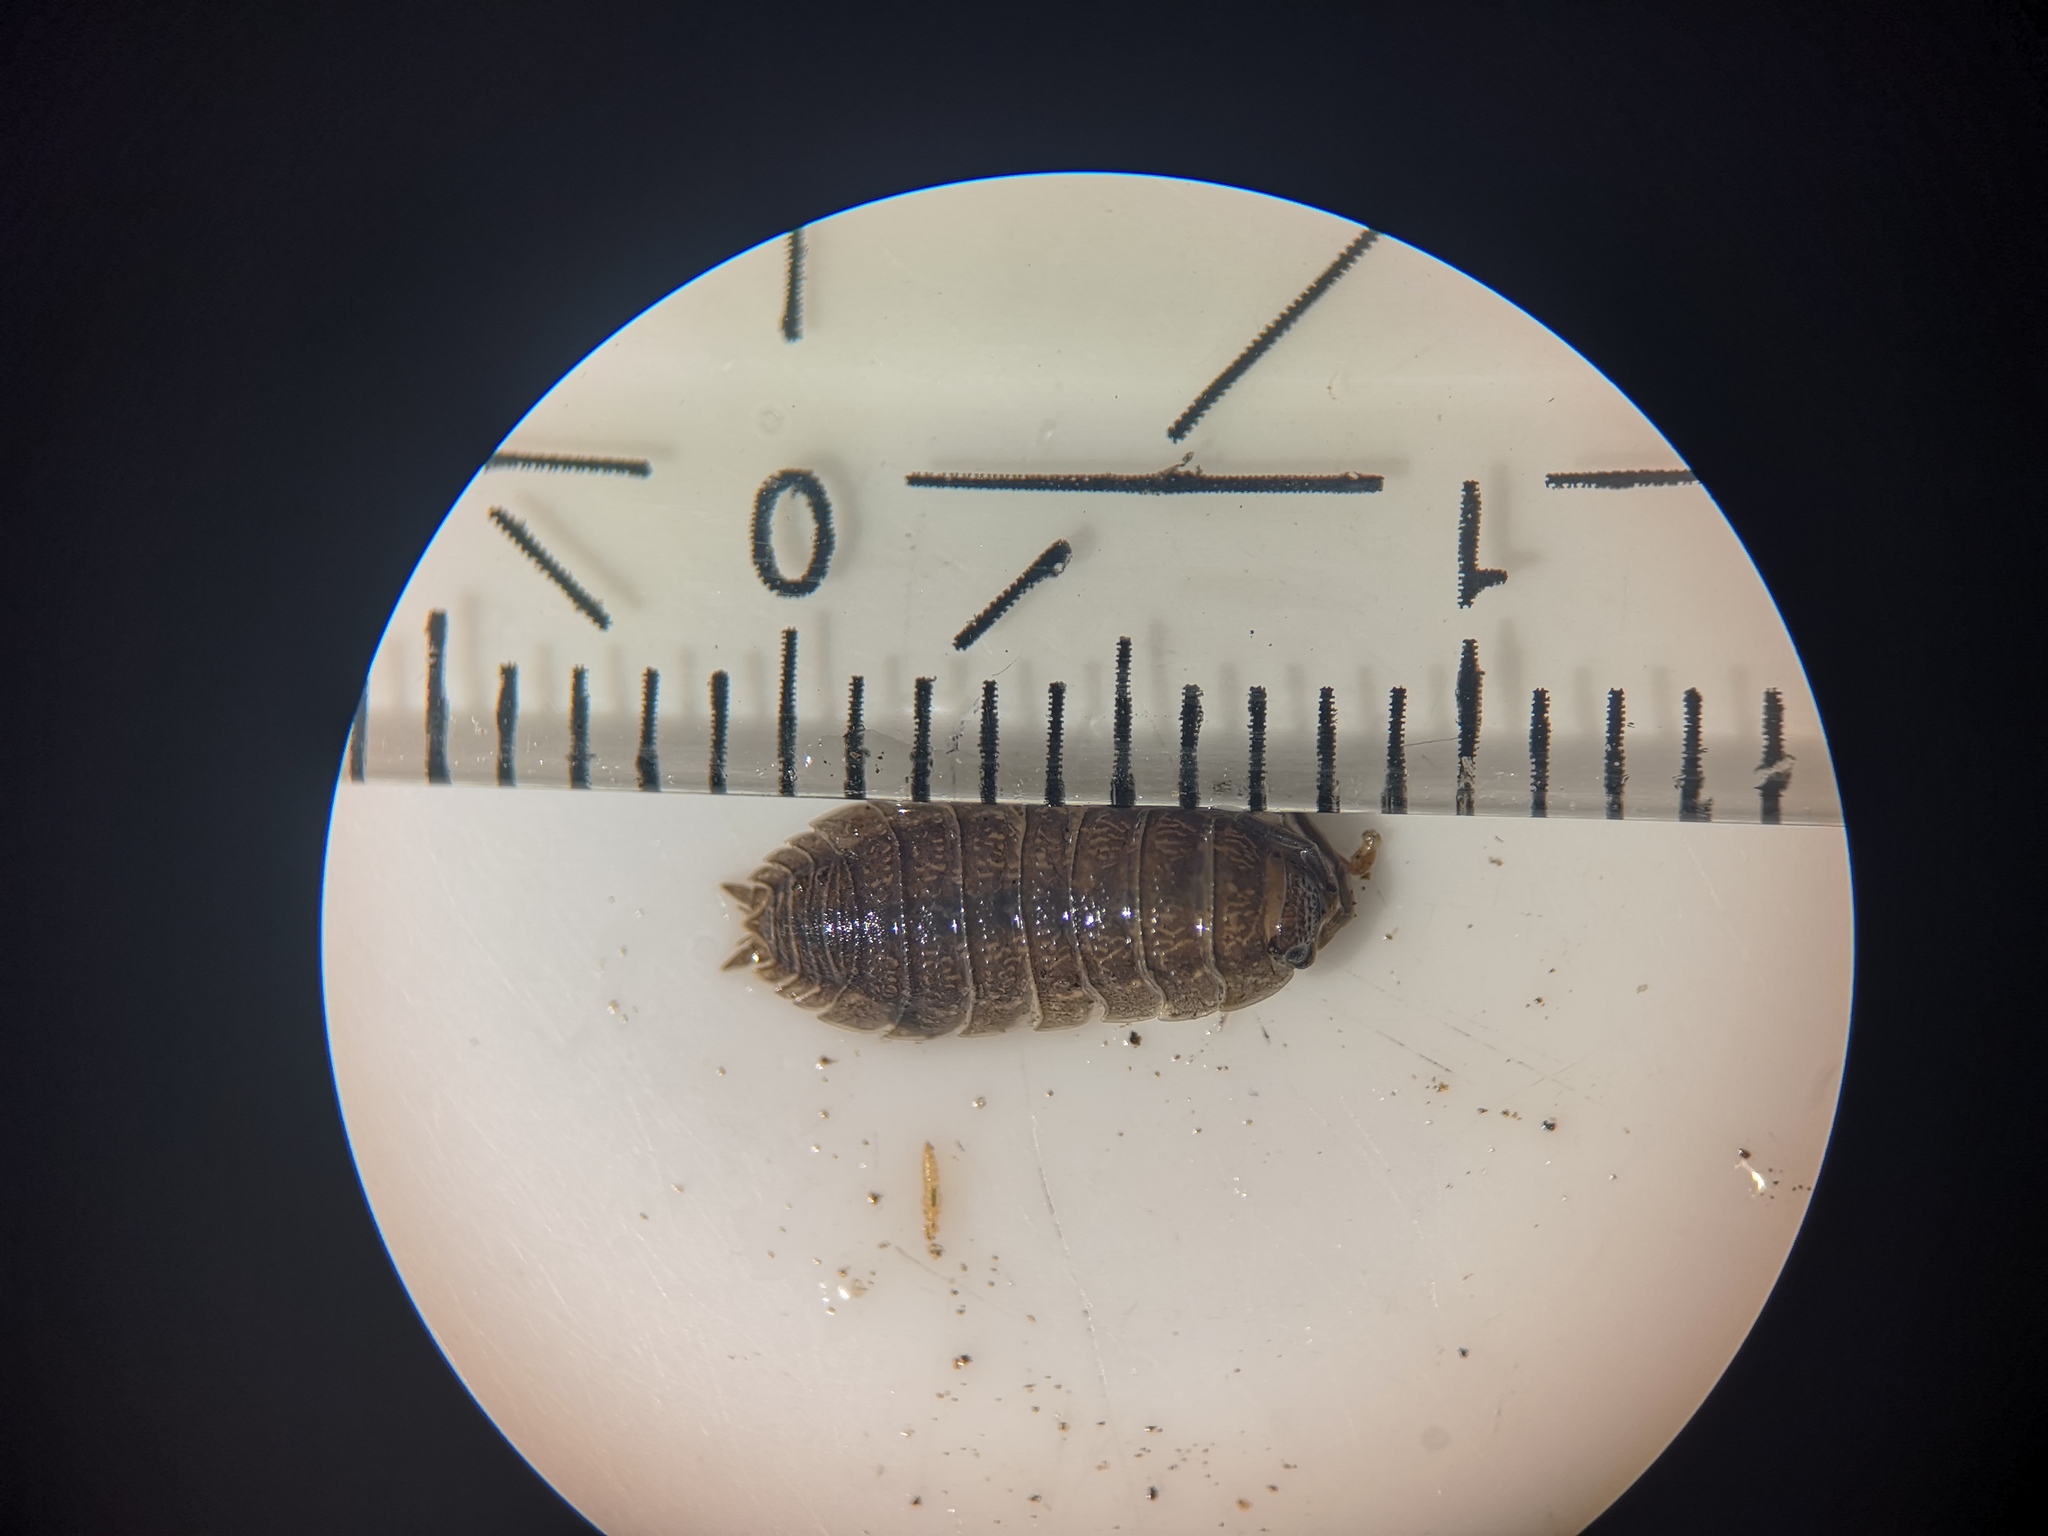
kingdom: Animalia
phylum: Arthropoda
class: Malacostraca
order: Isopoda
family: Porcellionidae
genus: Porcellio
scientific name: Porcellio scaber
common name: Common rough woodlouse
